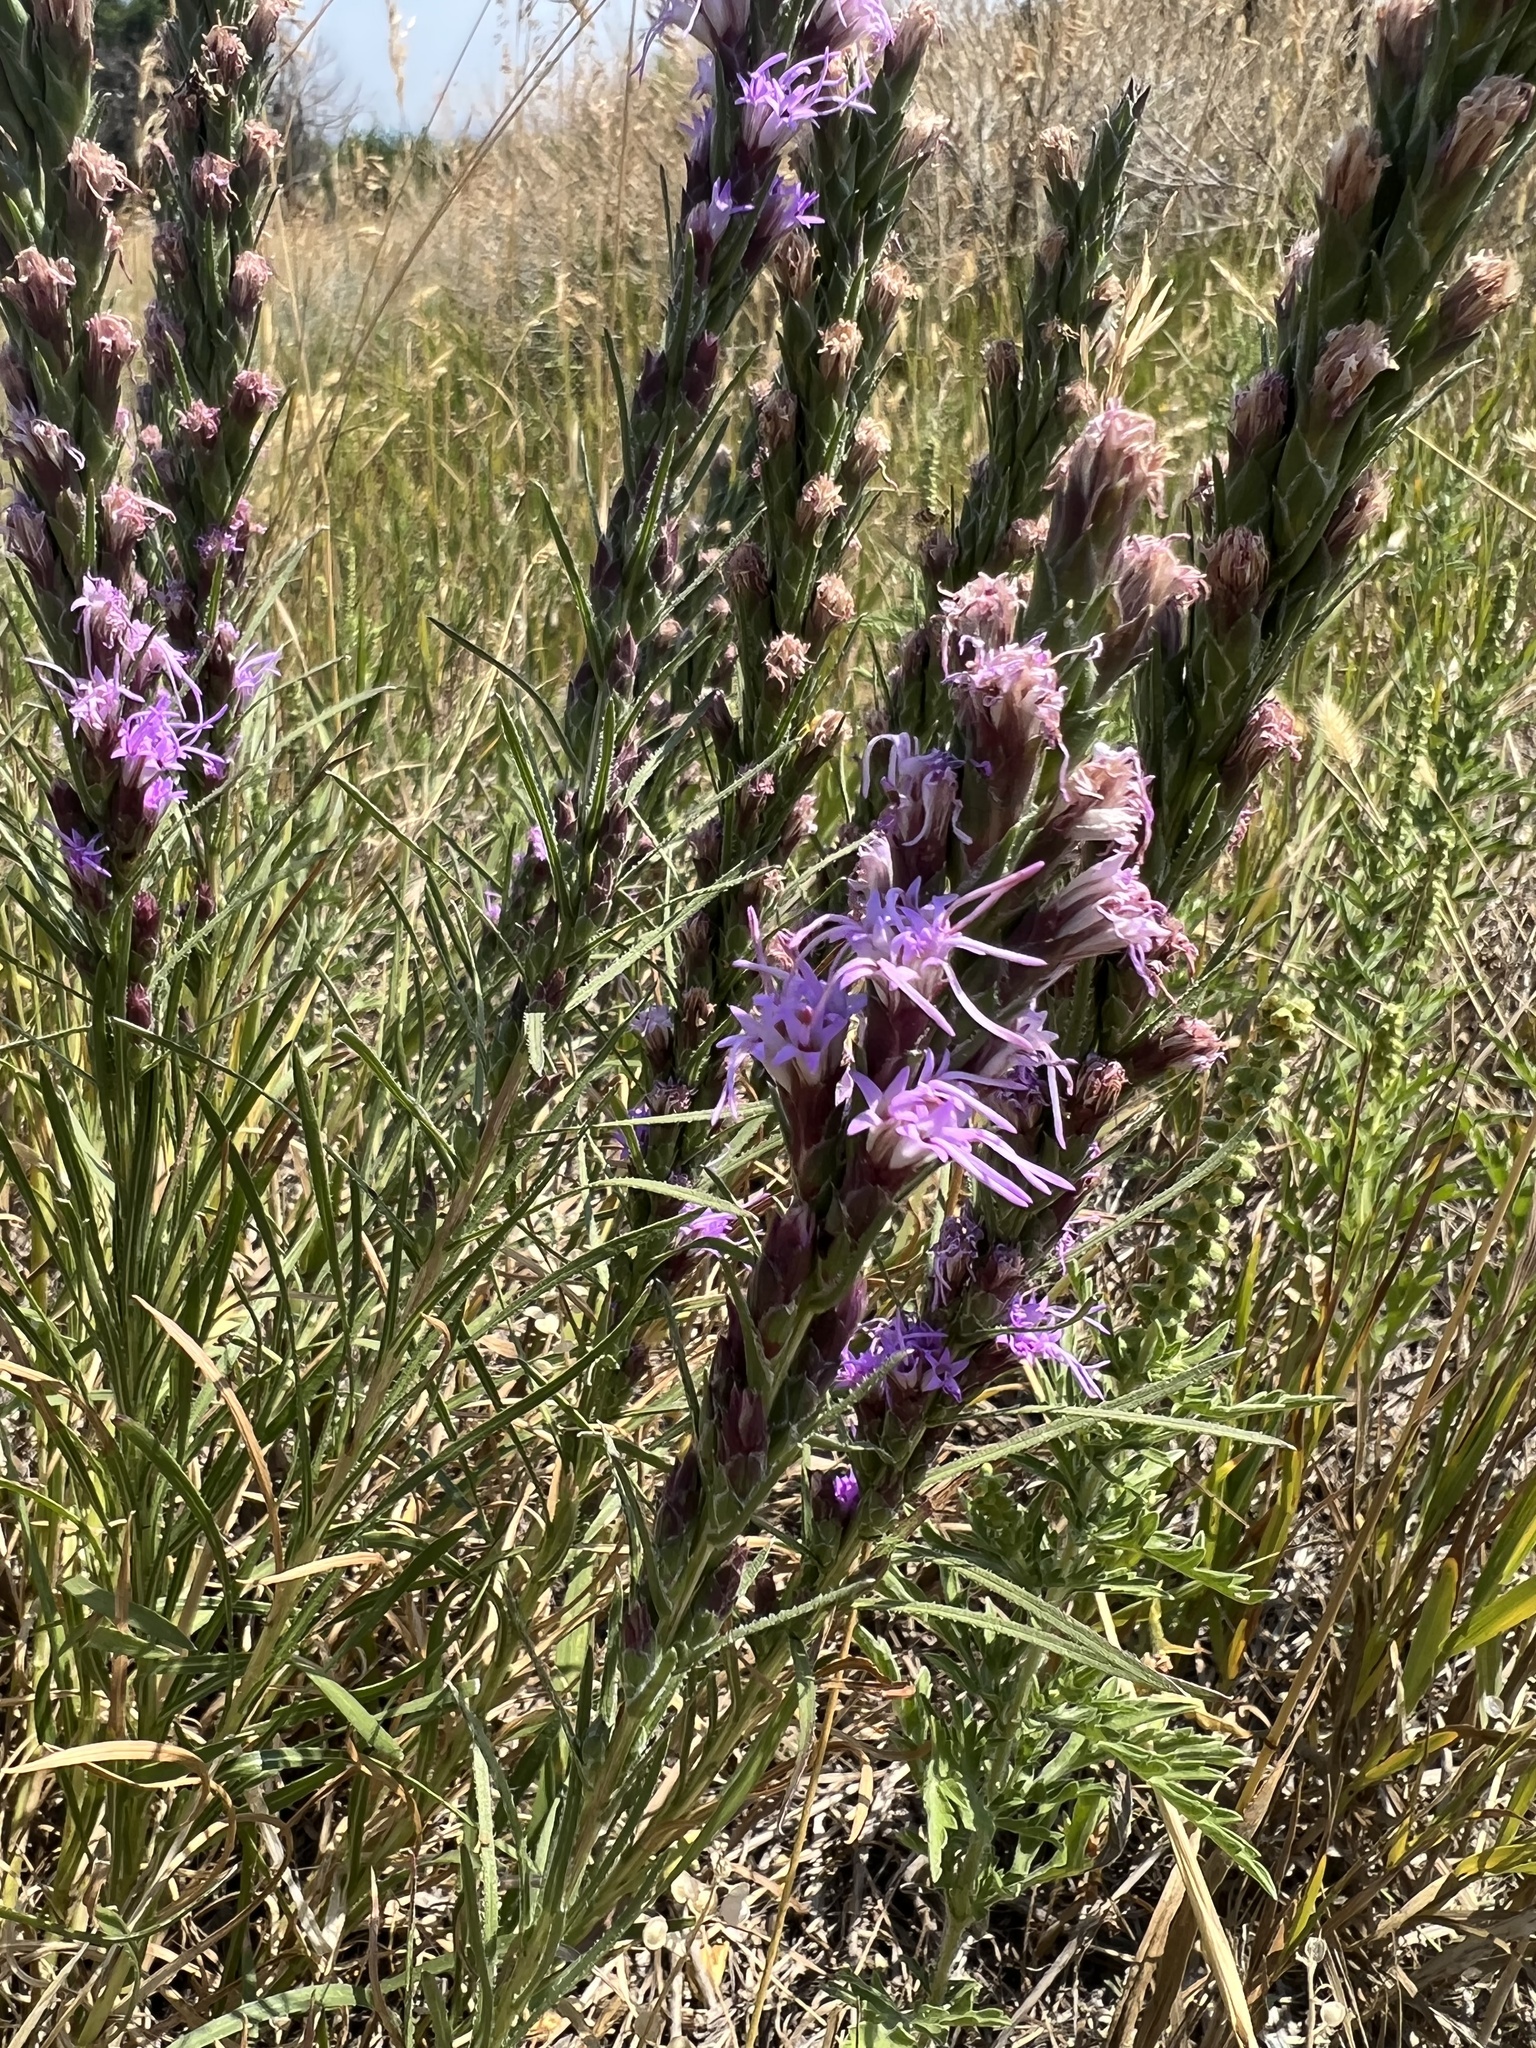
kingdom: Plantae
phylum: Tracheophyta
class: Magnoliopsida
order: Asterales
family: Asteraceae
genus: Liatris
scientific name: Liatris punctata
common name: Dotted gayfeather
